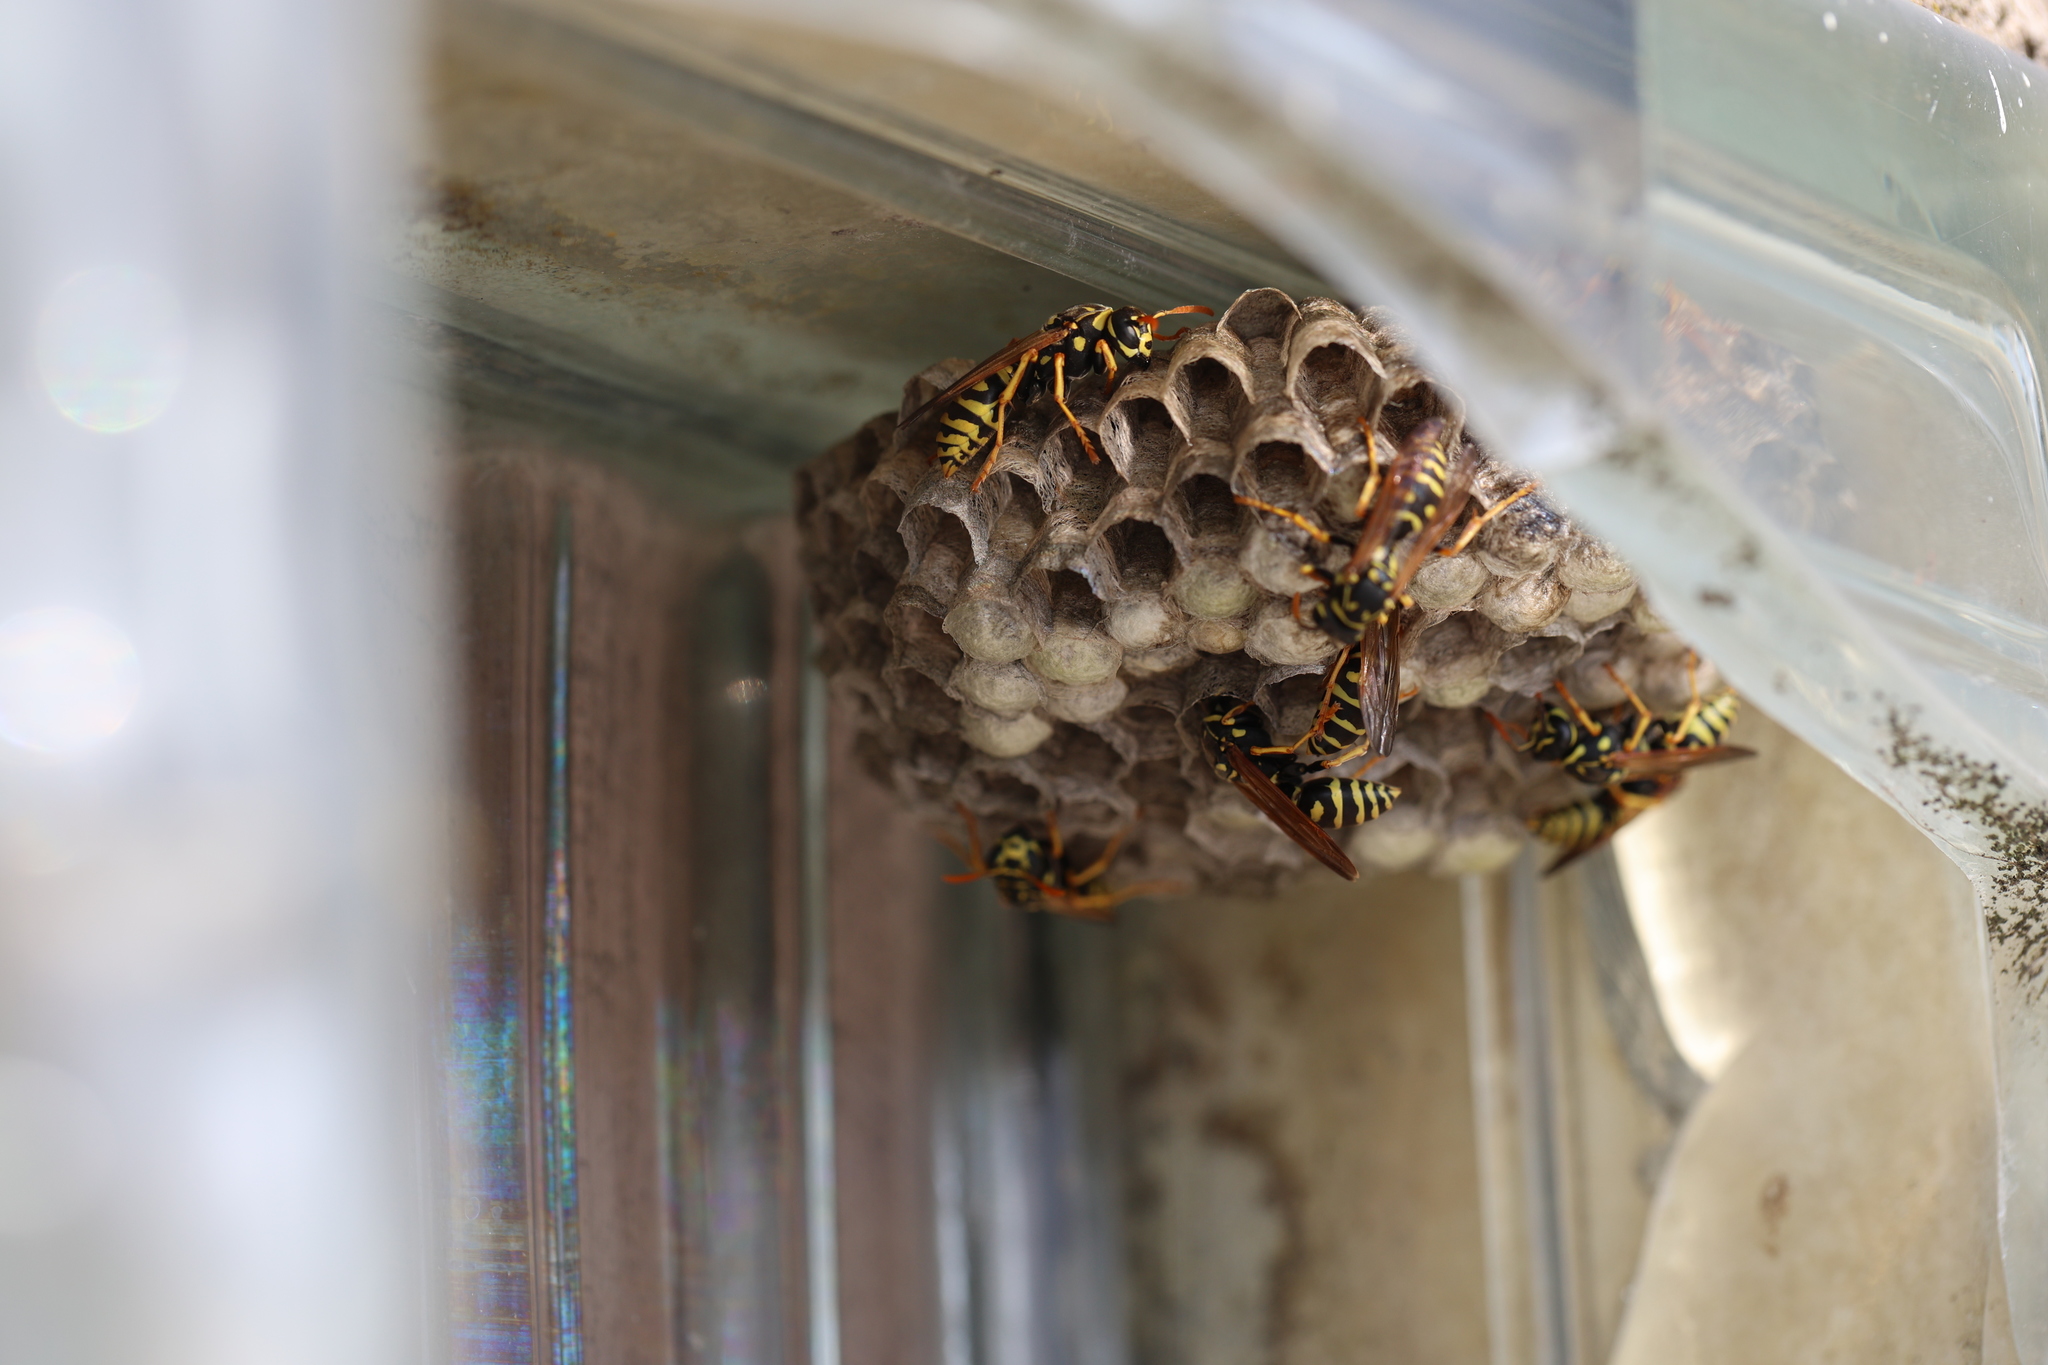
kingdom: Animalia
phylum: Arthropoda
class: Insecta
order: Hymenoptera
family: Eumenidae
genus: Polistes
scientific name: Polistes dominula
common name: Paper wasp
